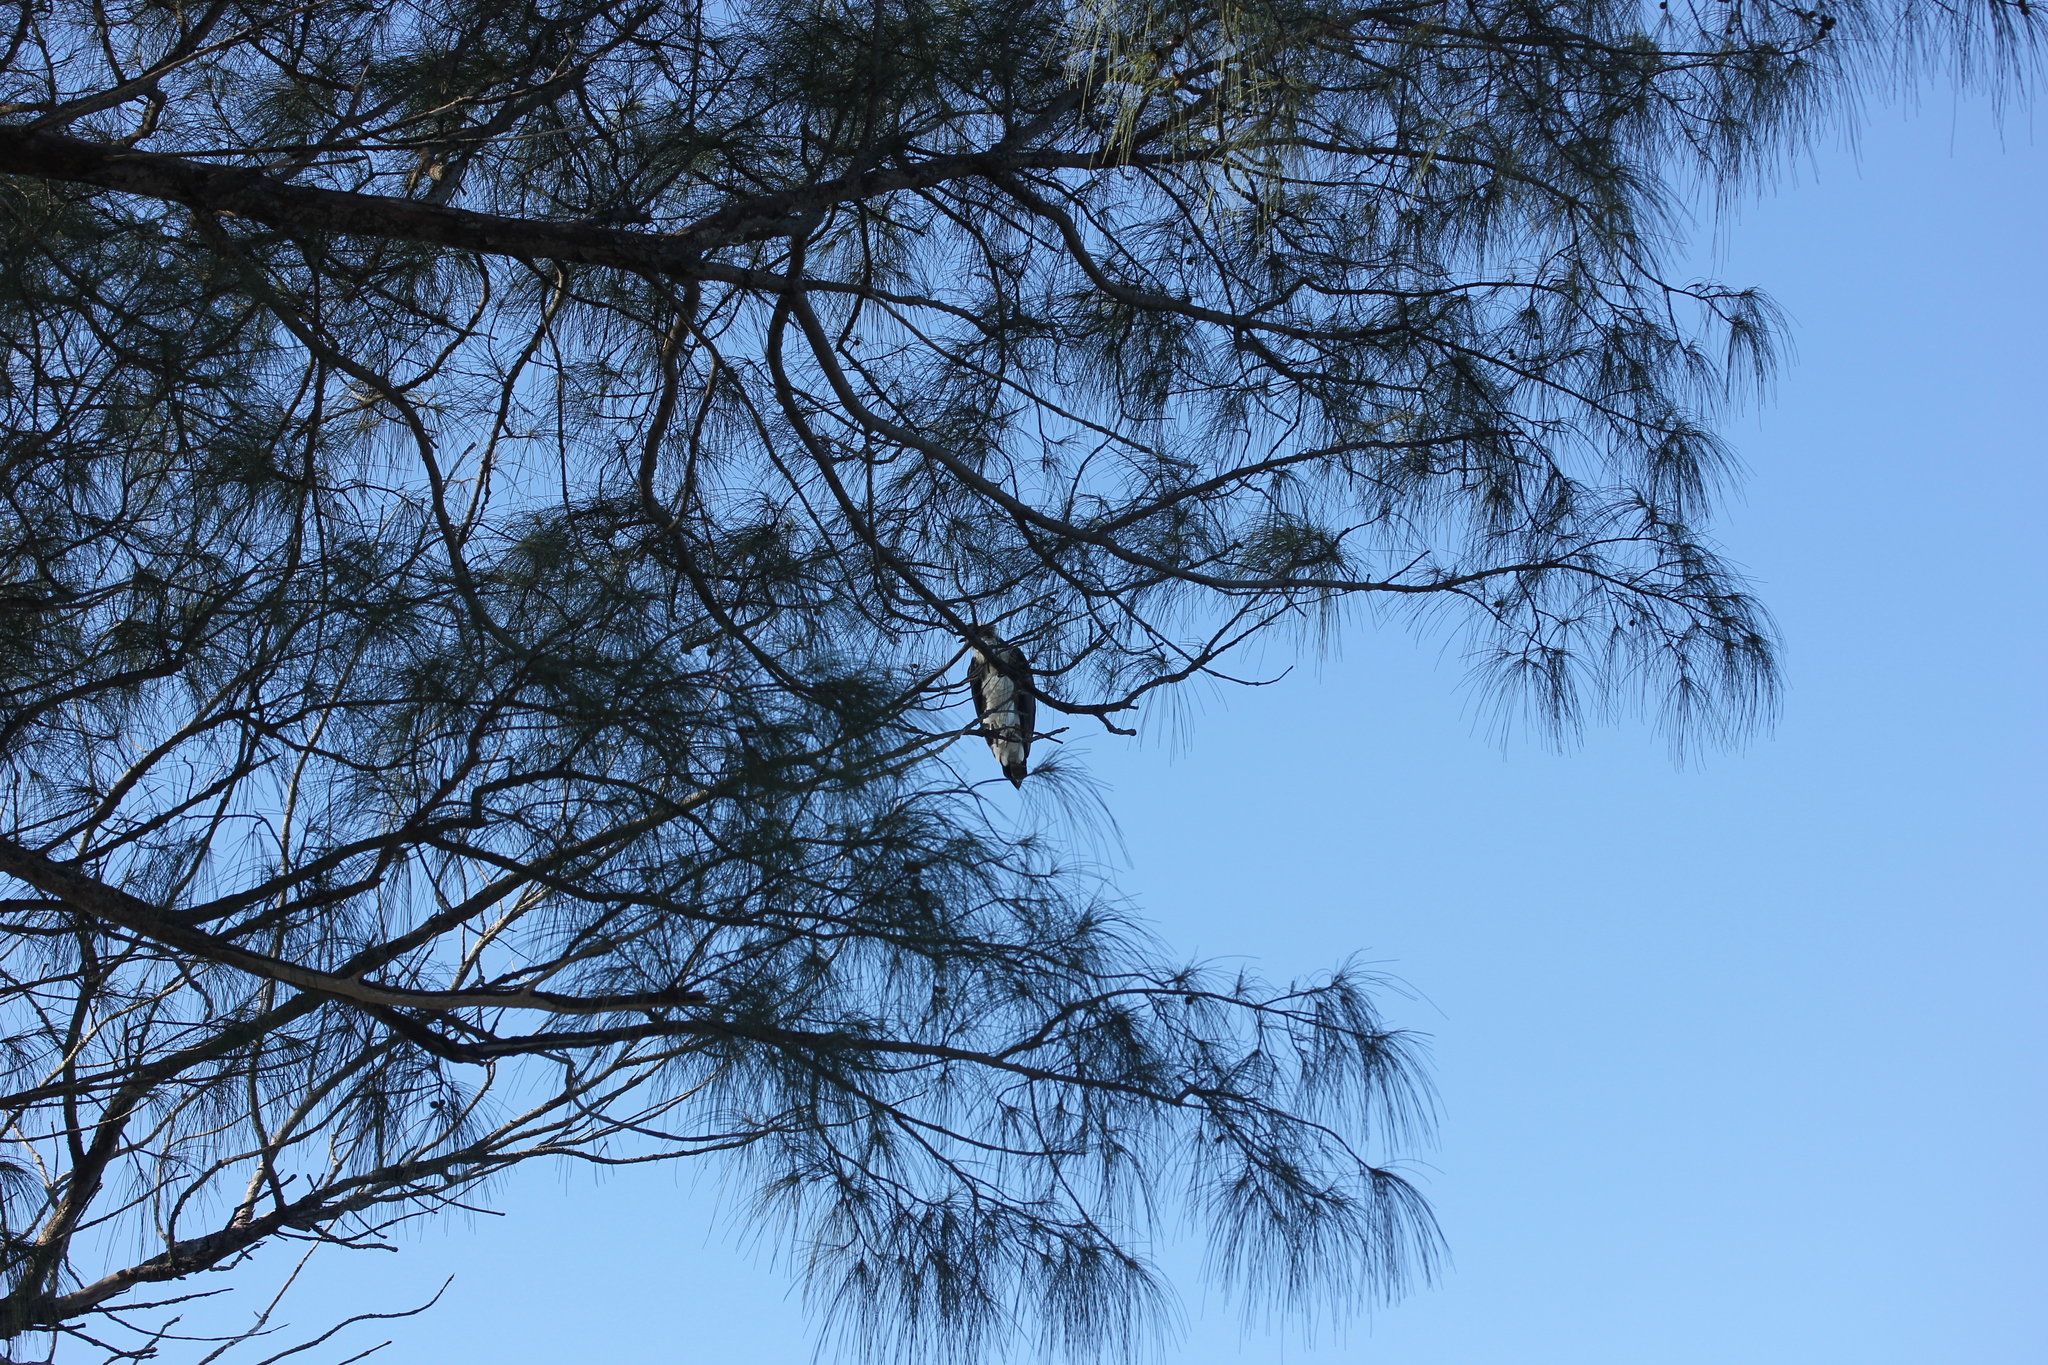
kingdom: Plantae
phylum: Tracheophyta
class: Magnoliopsida
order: Fagales
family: Casuarinaceae
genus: Casuarina
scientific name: Casuarina equisetifolia
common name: Beach sheoak
